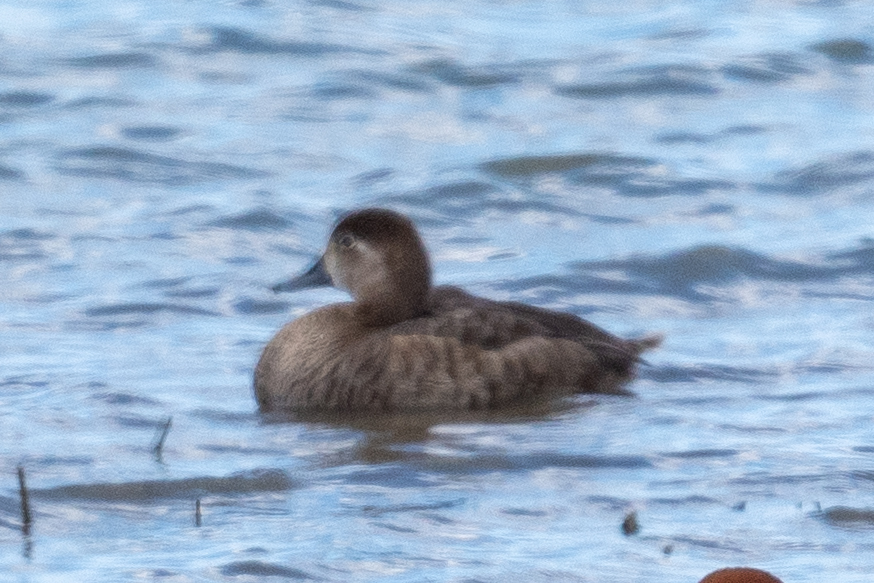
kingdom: Animalia
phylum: Chordata
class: Aves
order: Anseriformes
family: Anatidae
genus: Aythya
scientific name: Aythya americana
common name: Redhead
